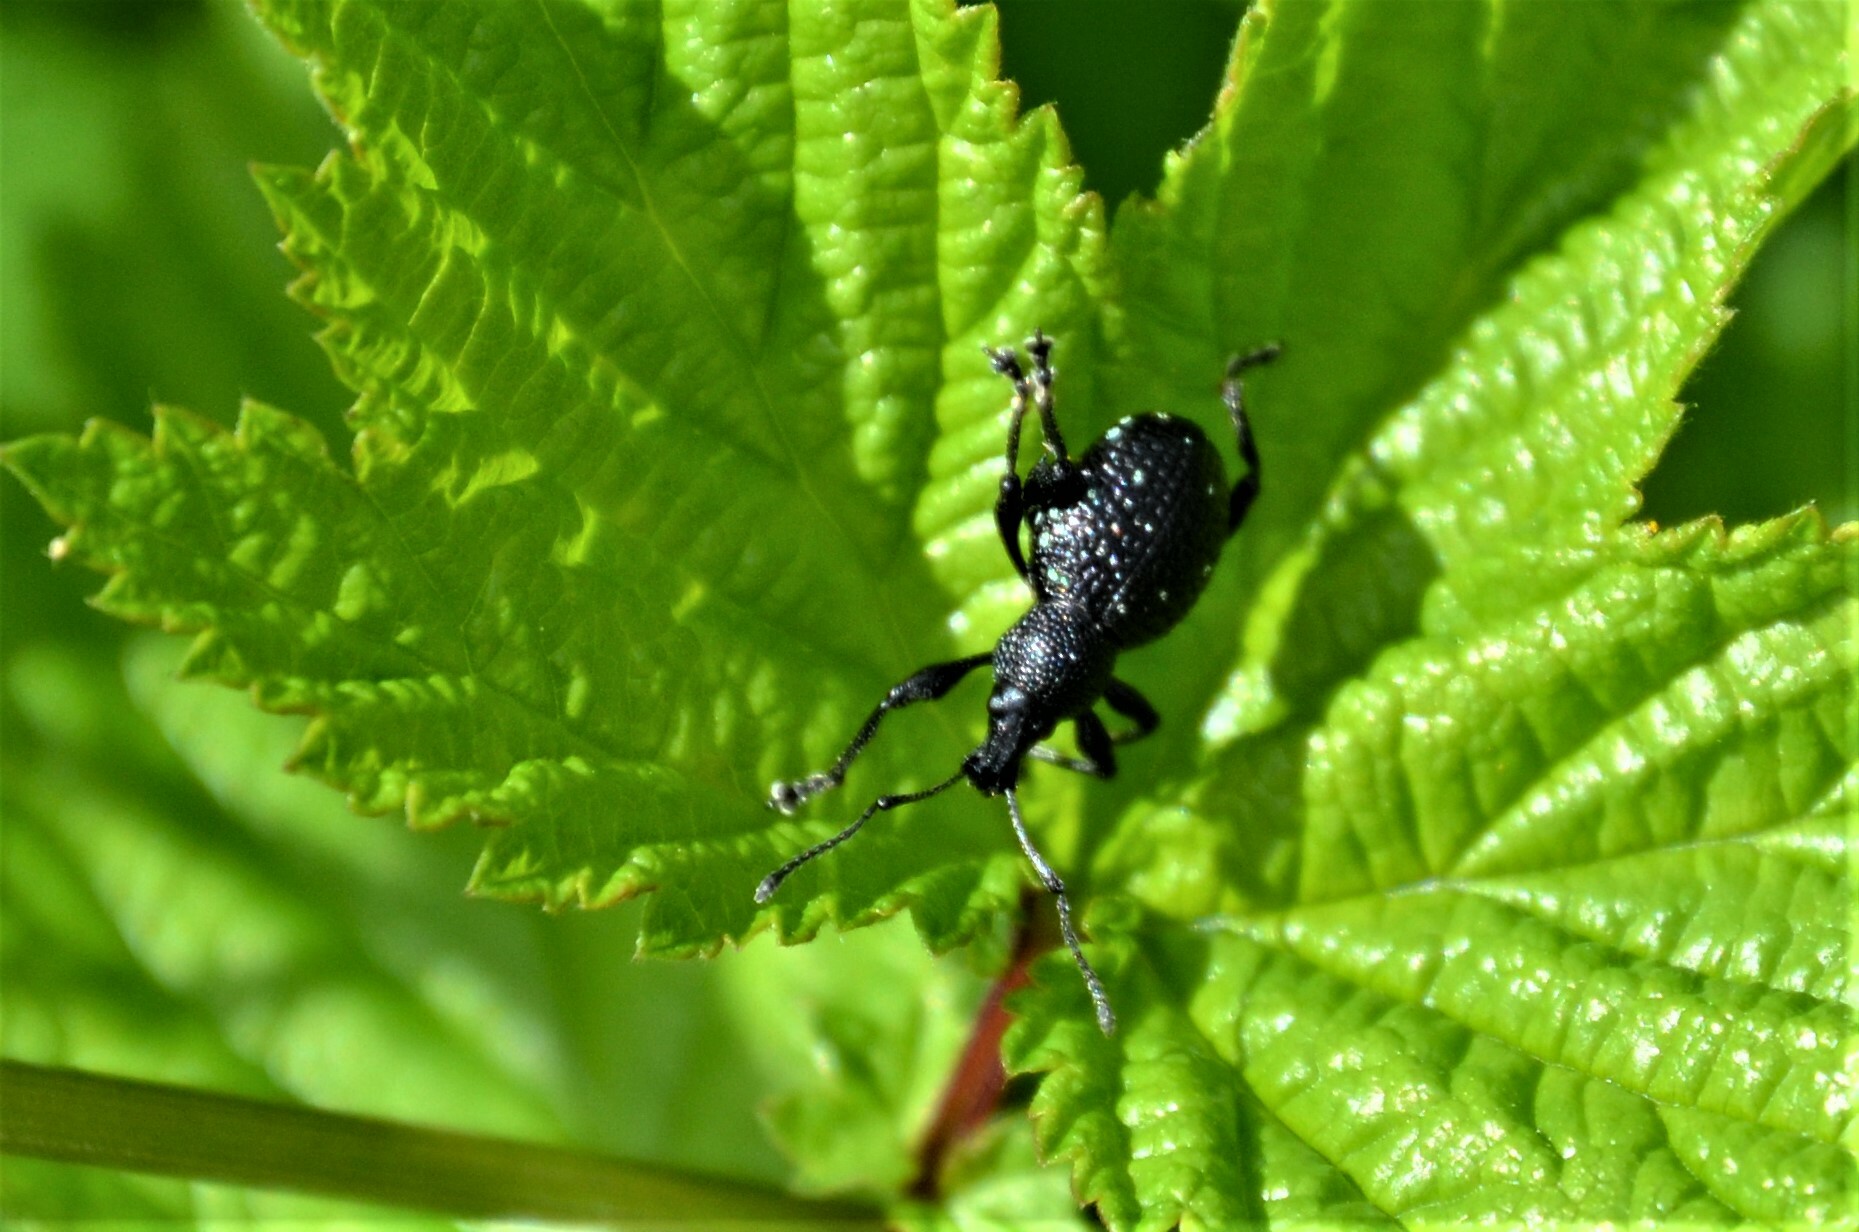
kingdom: Animalia
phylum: Arthropoda
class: Insecta
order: Coleoptera
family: Curculionidae
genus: Otiorhynchus
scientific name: Otiorhynchus gemmatus
